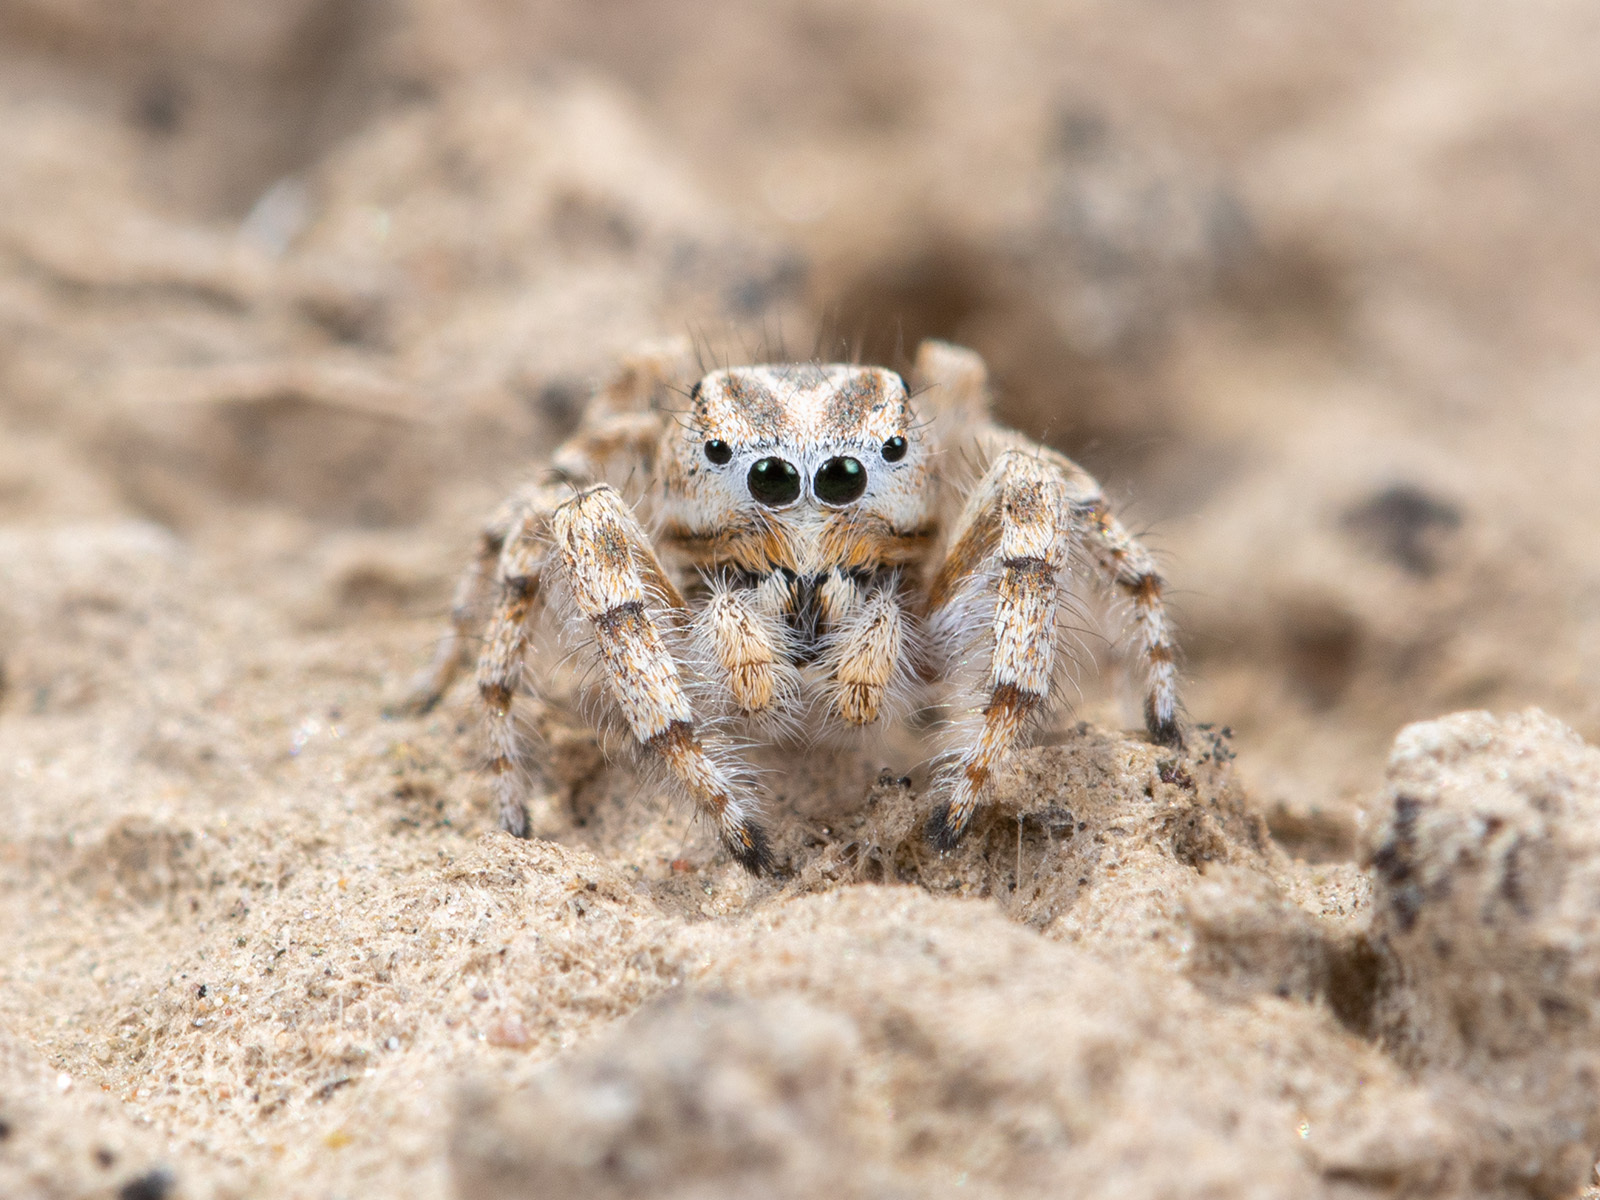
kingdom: Animalia
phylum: Arthropoda
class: Arachnida
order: Araneae
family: Salticidae
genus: Pseudomogrus
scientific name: Pseudomogrus guseinovi
